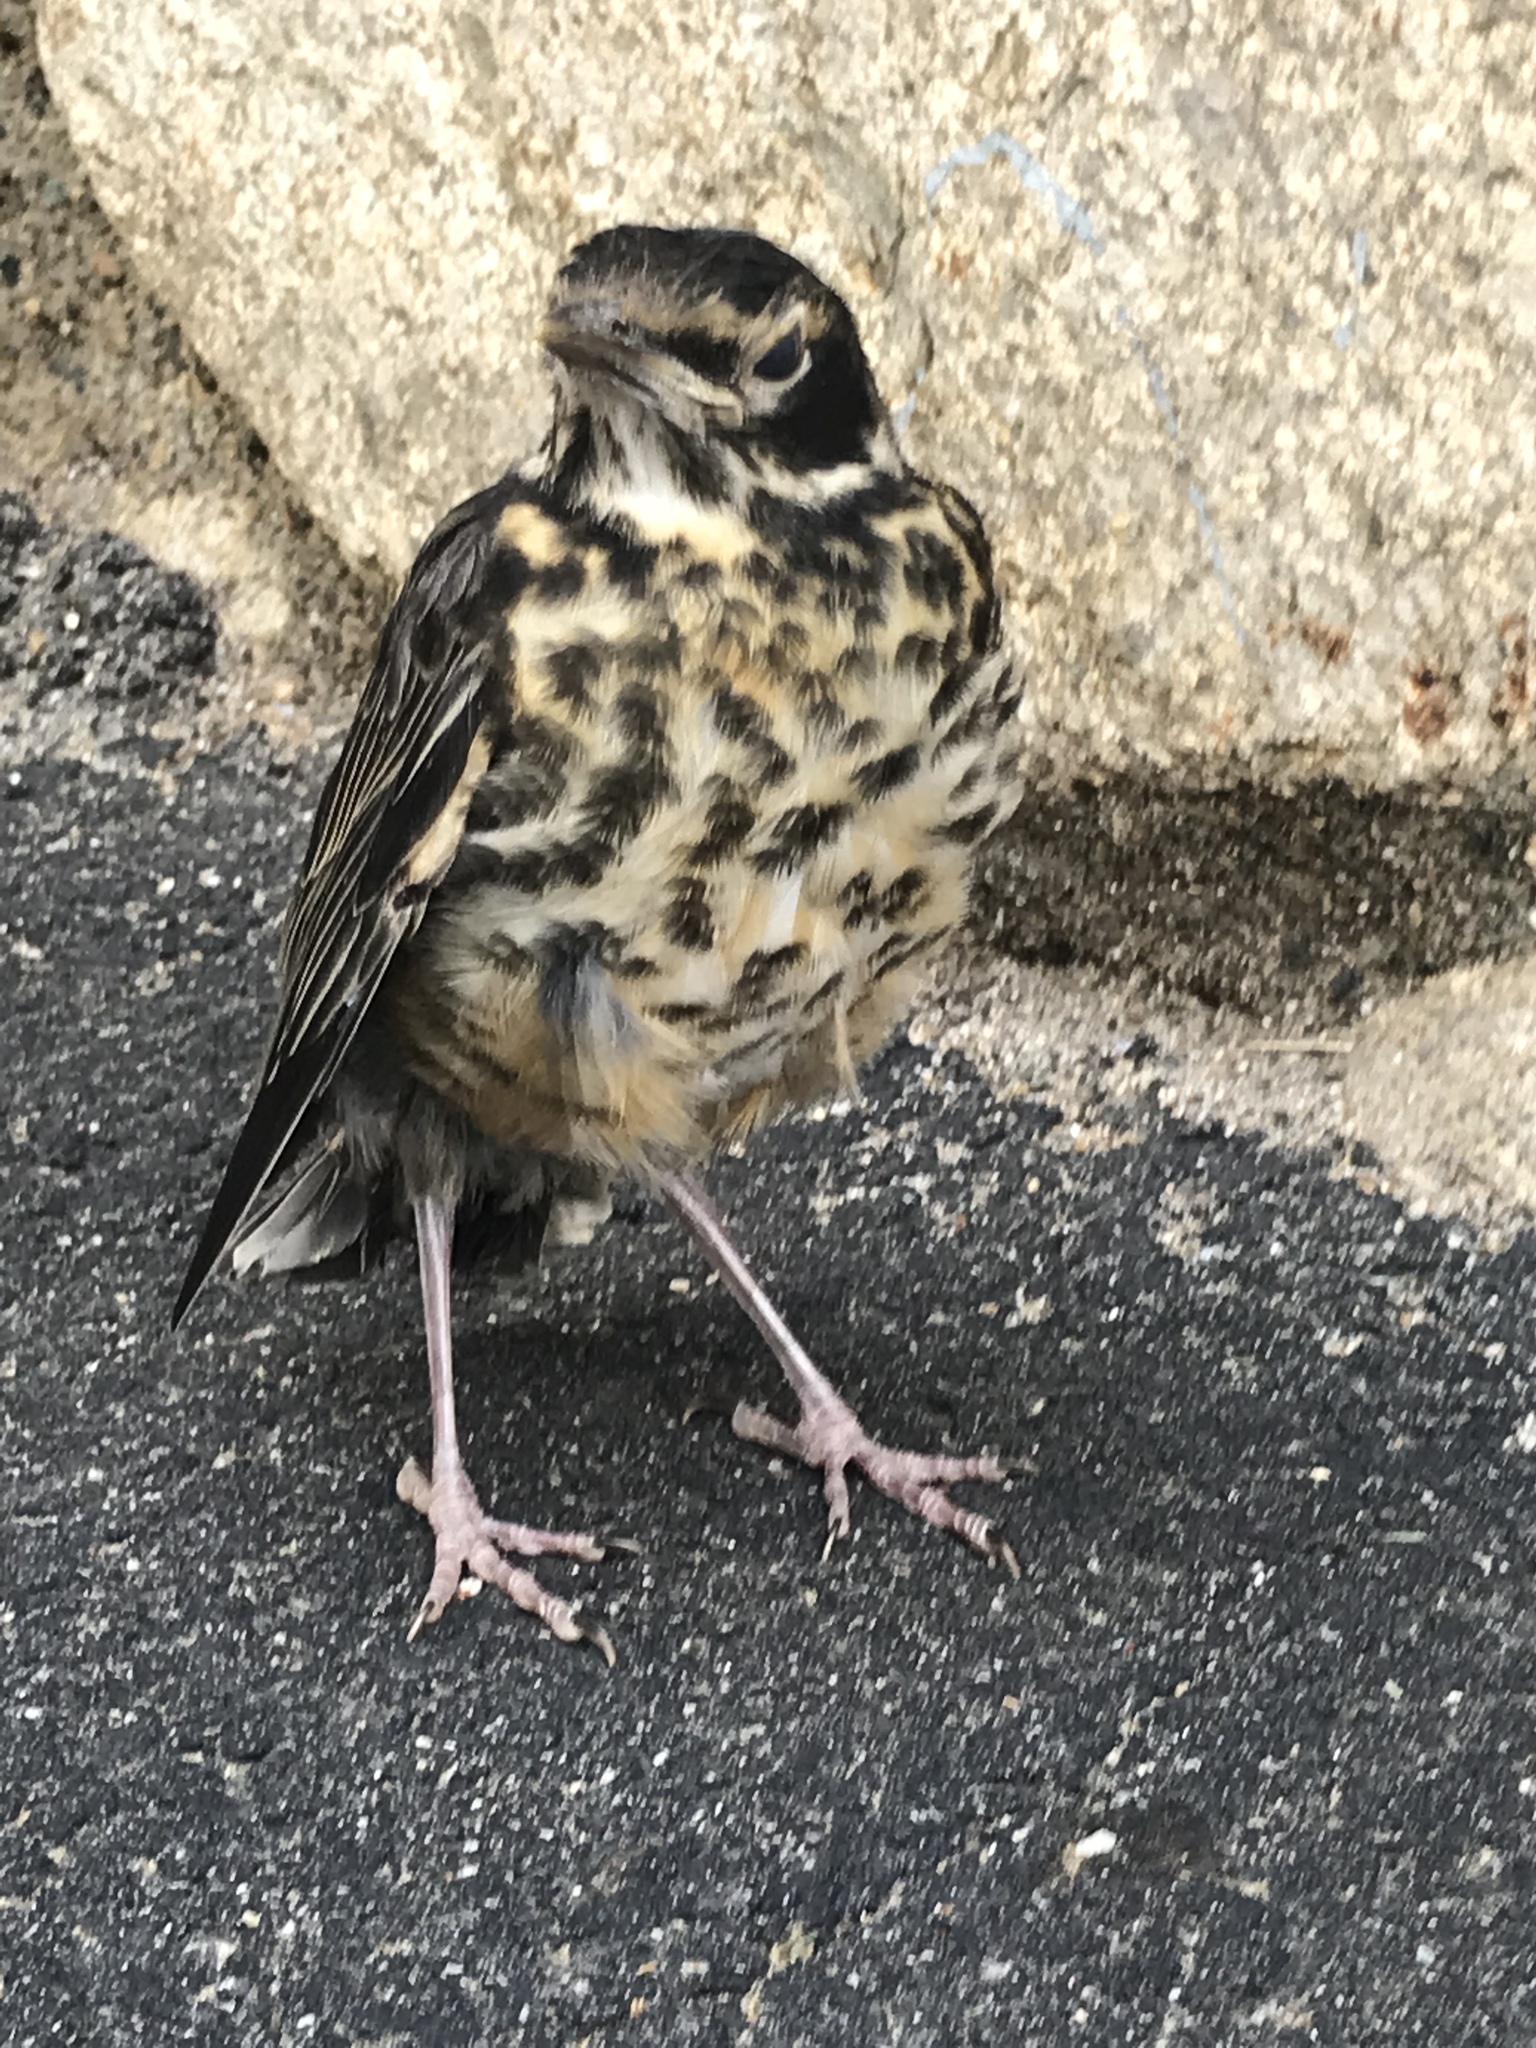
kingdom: Animalia
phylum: Chordata
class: Aves
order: Passeriformes
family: Turdidae
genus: Turdus
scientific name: Turdus migratorius
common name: American robin
